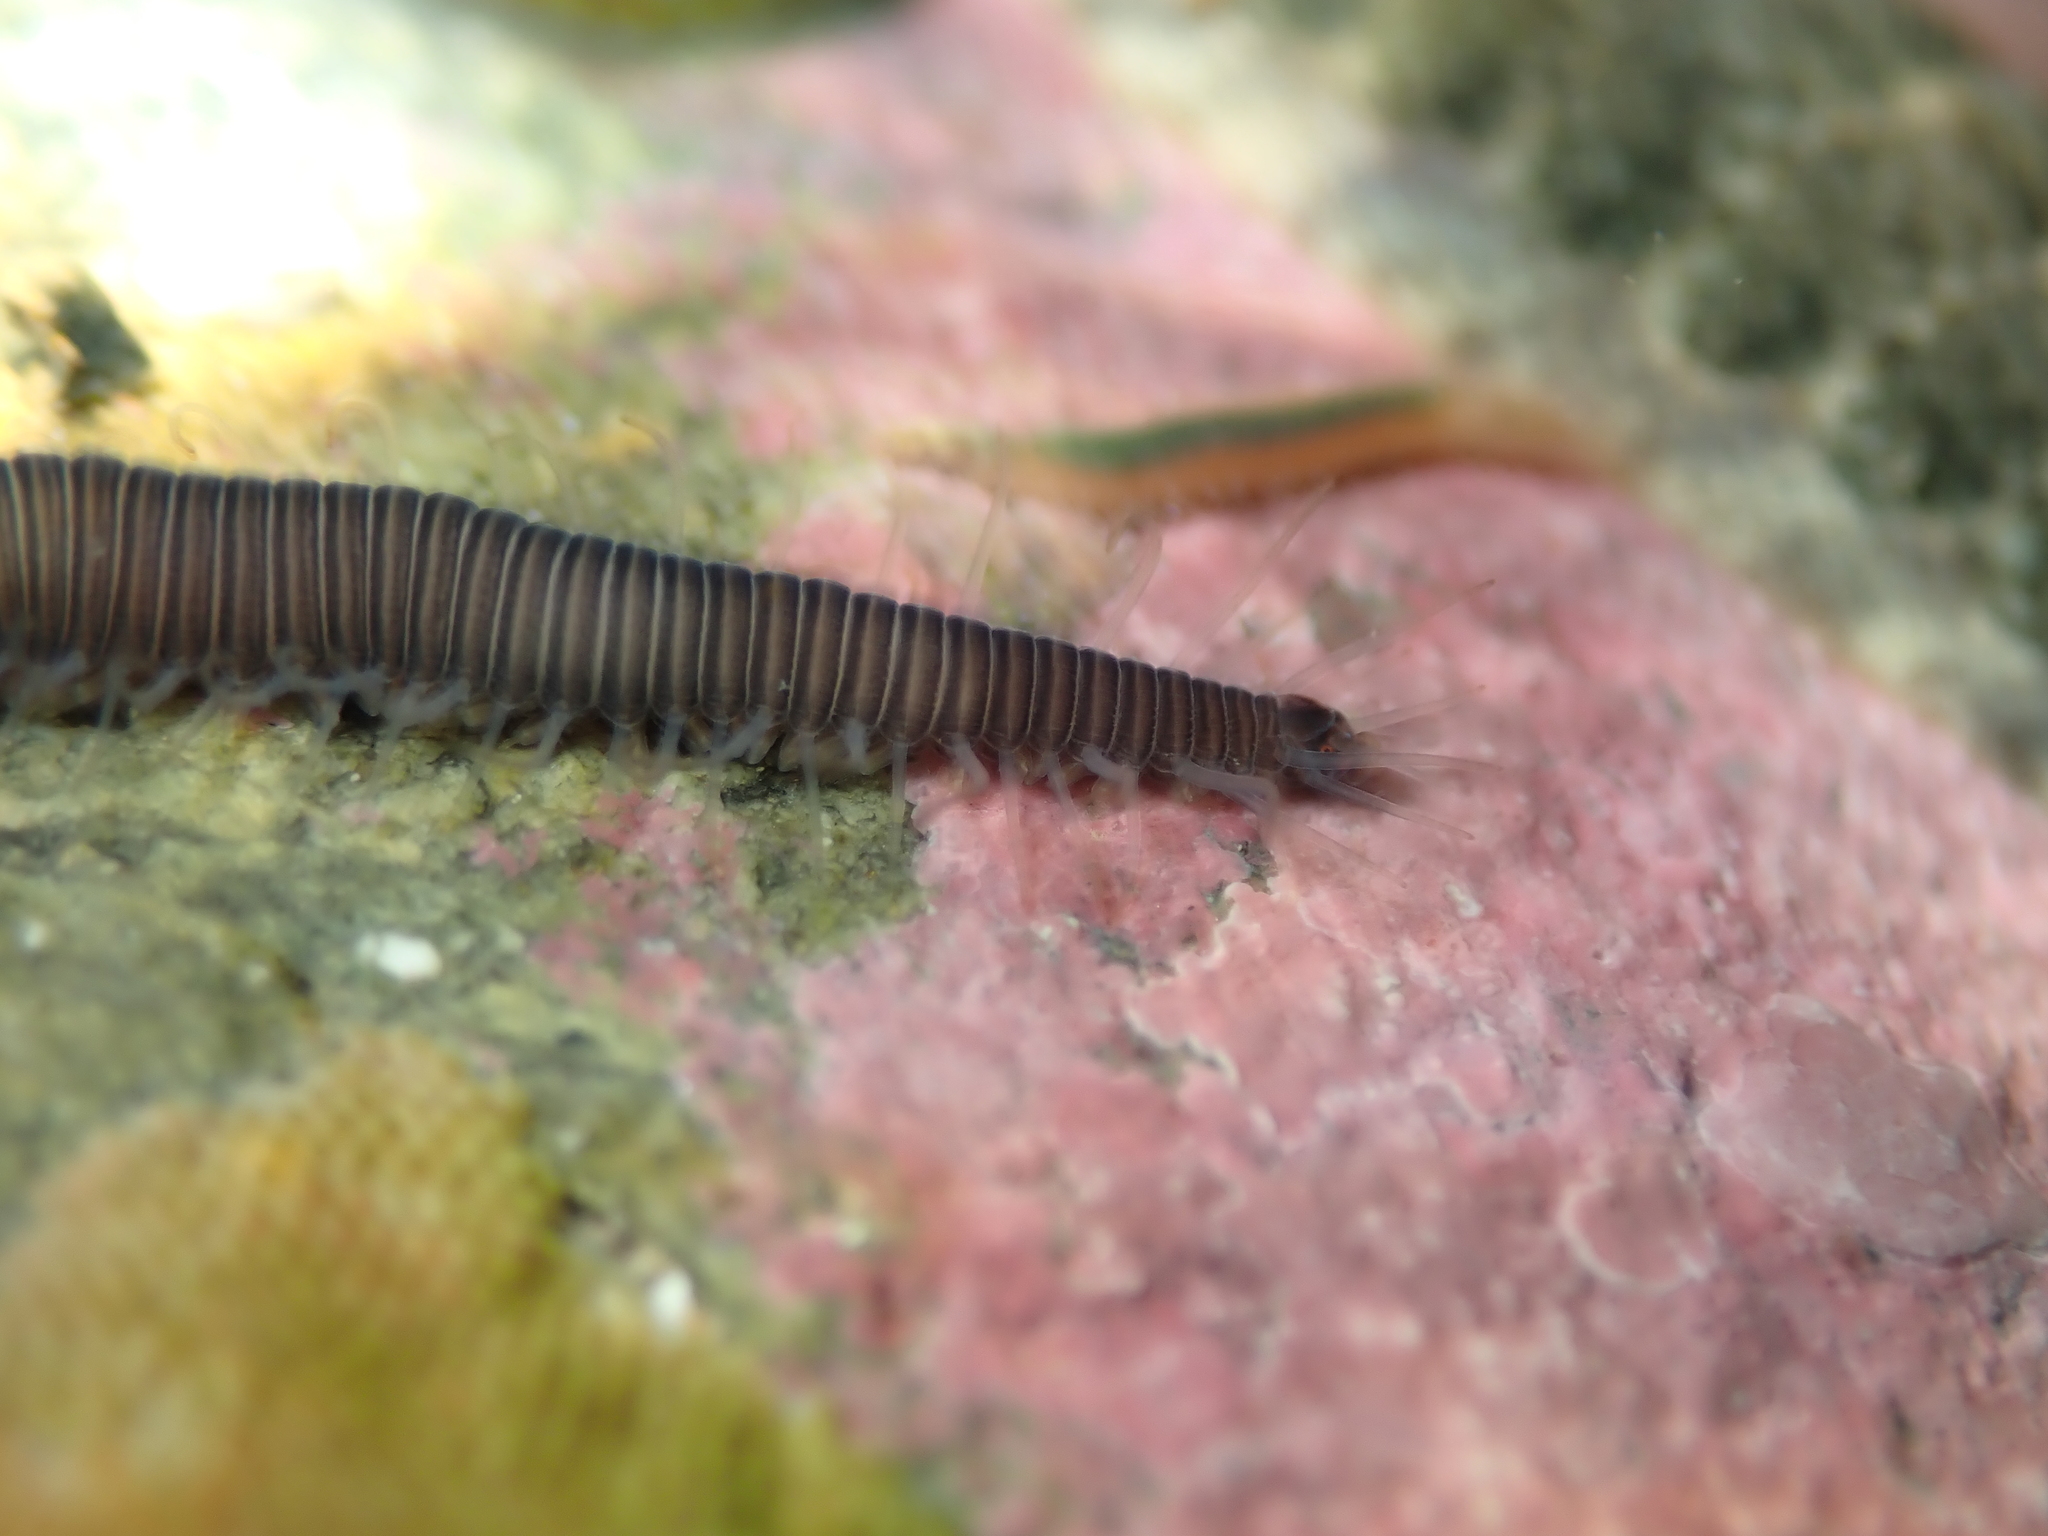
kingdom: Animalia
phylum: Annelida
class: Polychaeta
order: Phyllodocida
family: Syllidae
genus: Odontosyllis
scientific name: Odontosyllis polycera
